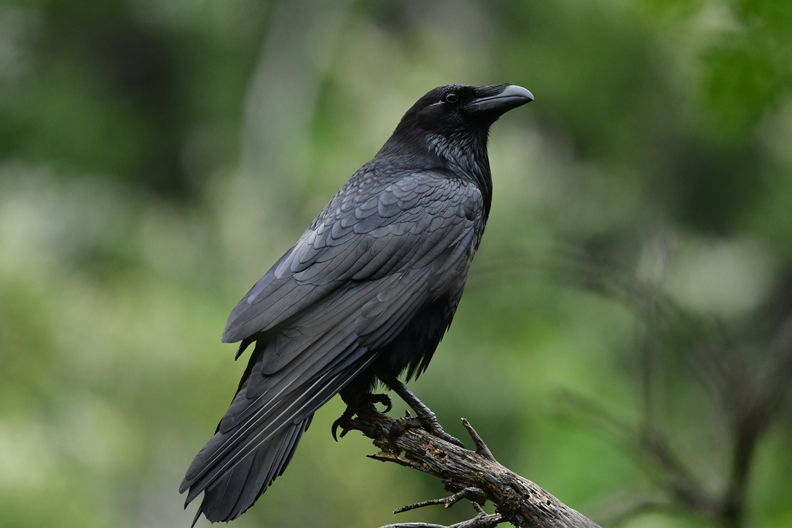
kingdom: Animalia
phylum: Chordata
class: Aves
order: Passeriformes
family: Corvidae
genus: Corvus
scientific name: Corvus corax
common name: Common raven
